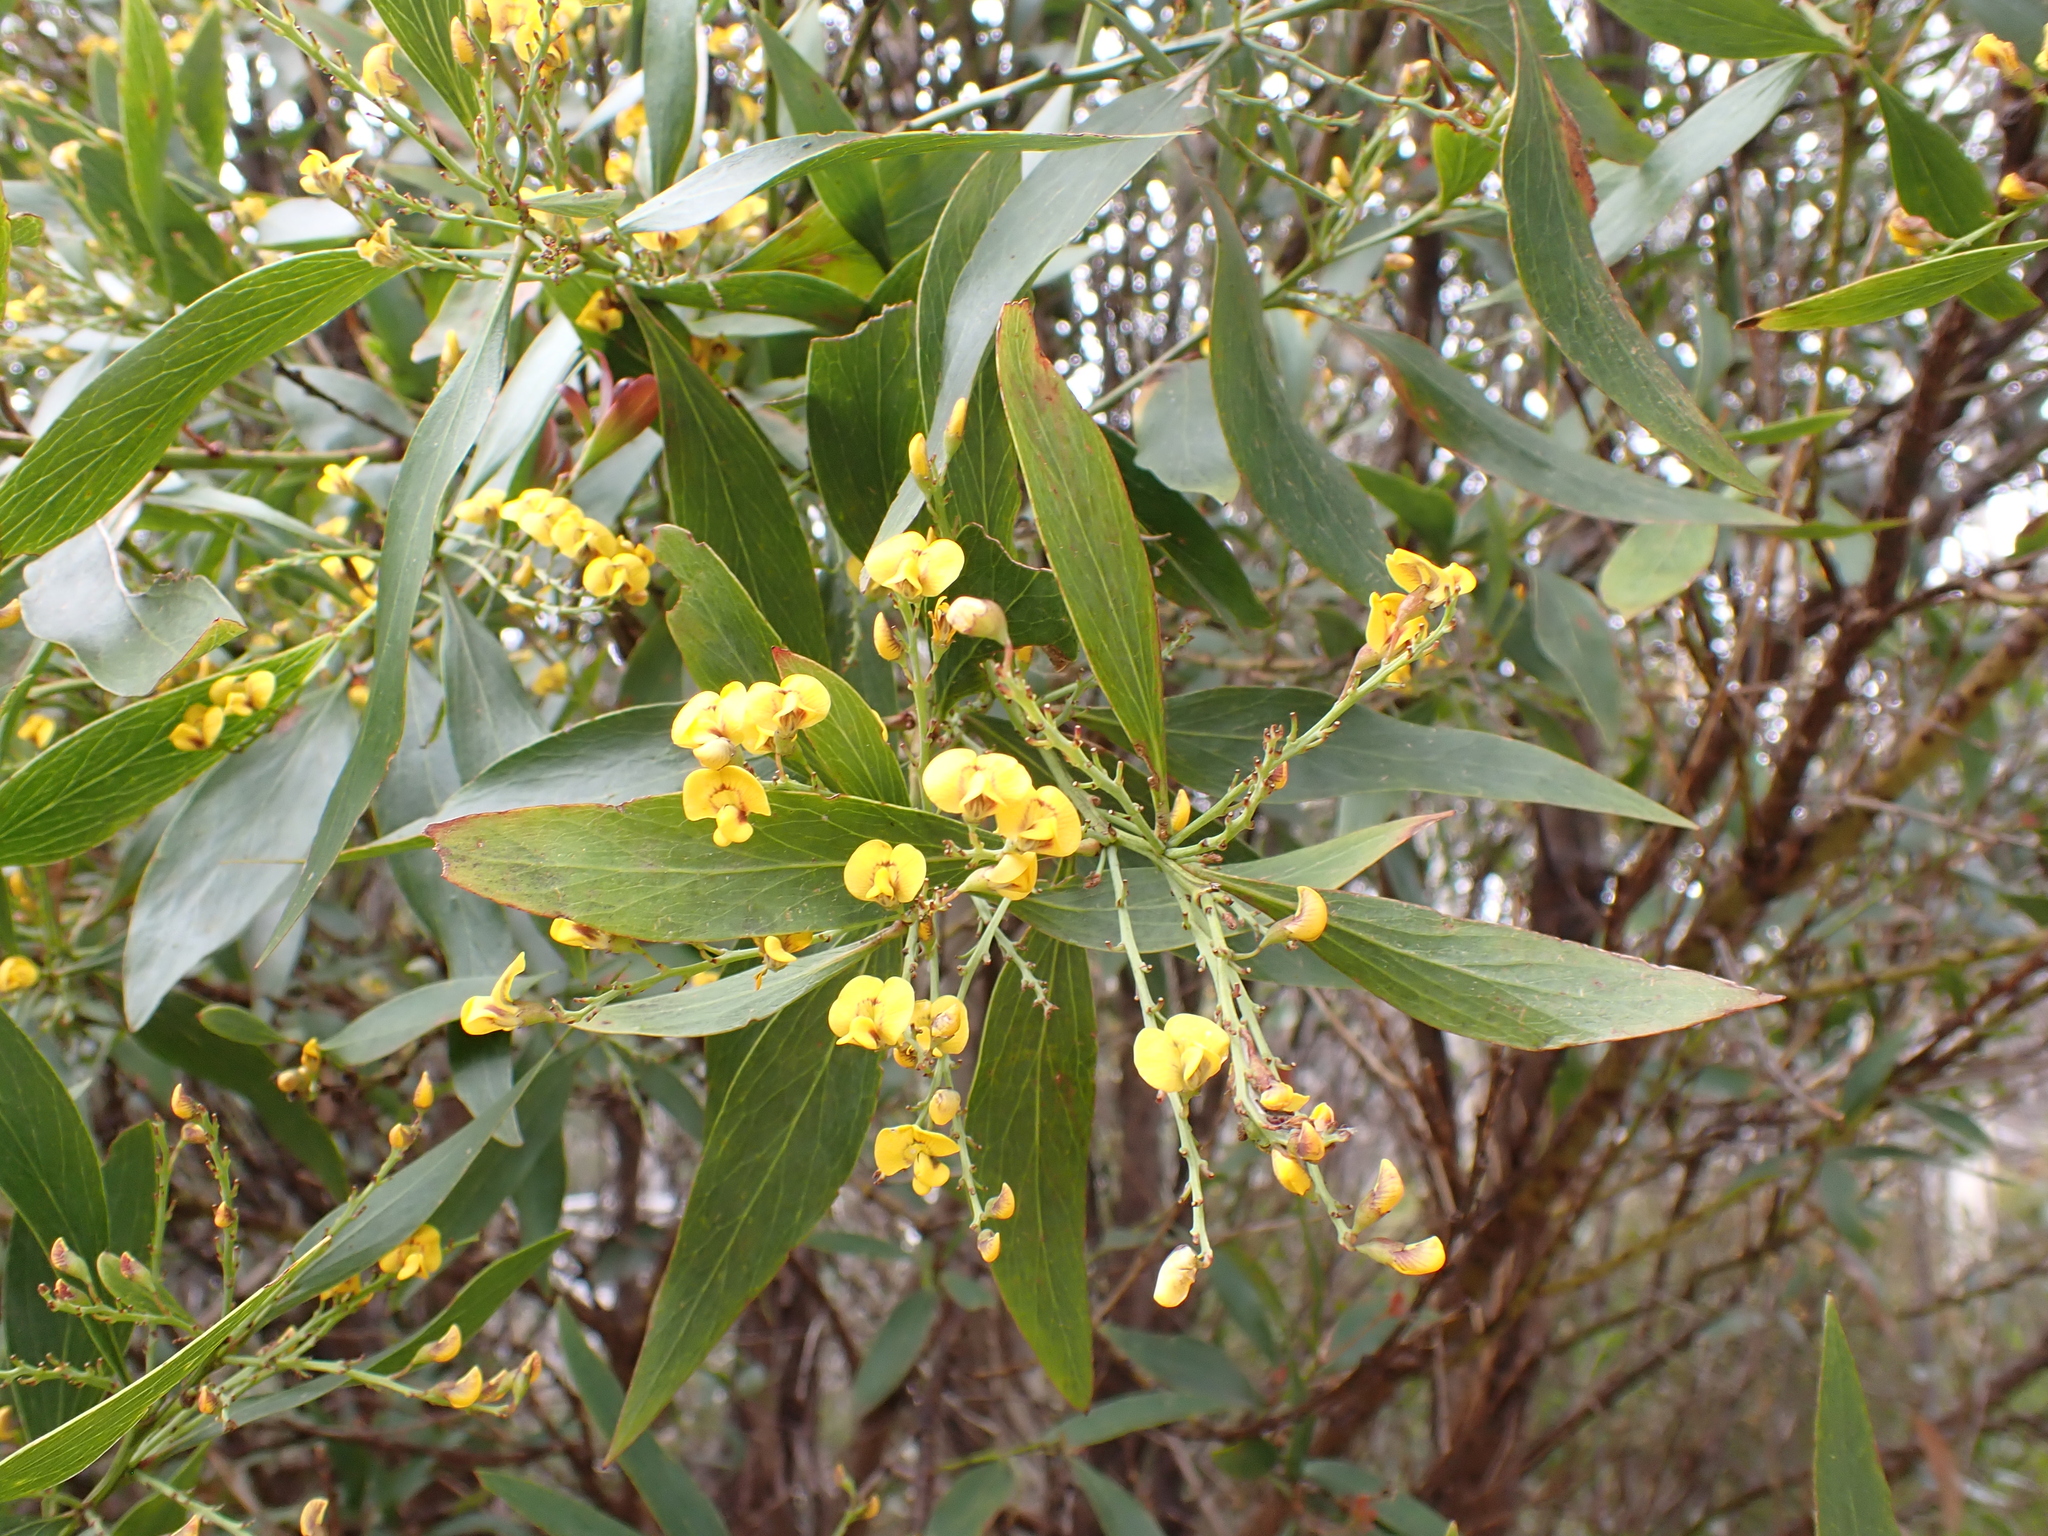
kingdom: Plantae
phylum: Tracheophyta
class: Magnoliopsida
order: Fabales
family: Fabaceae
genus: Daviesia
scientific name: Daviesia laxiflora
